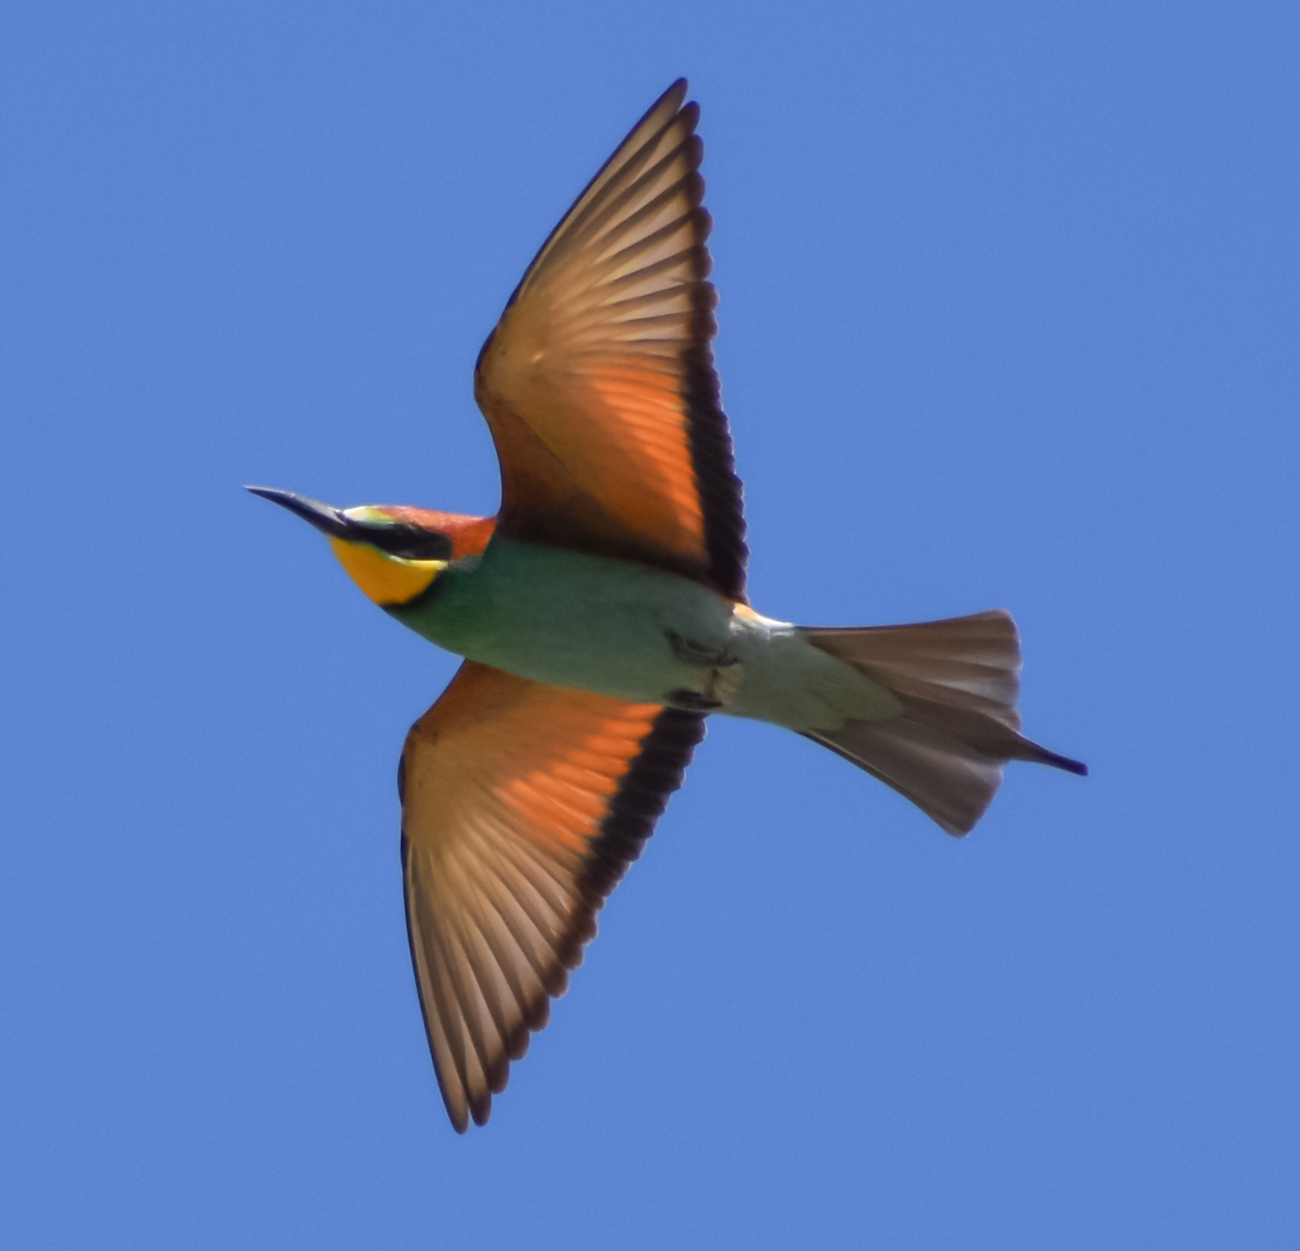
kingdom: Animalia
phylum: Chordata
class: Aves
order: Coraciiformes
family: Meropidae
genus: Merops
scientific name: Merops apiaster
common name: European bee-eater
